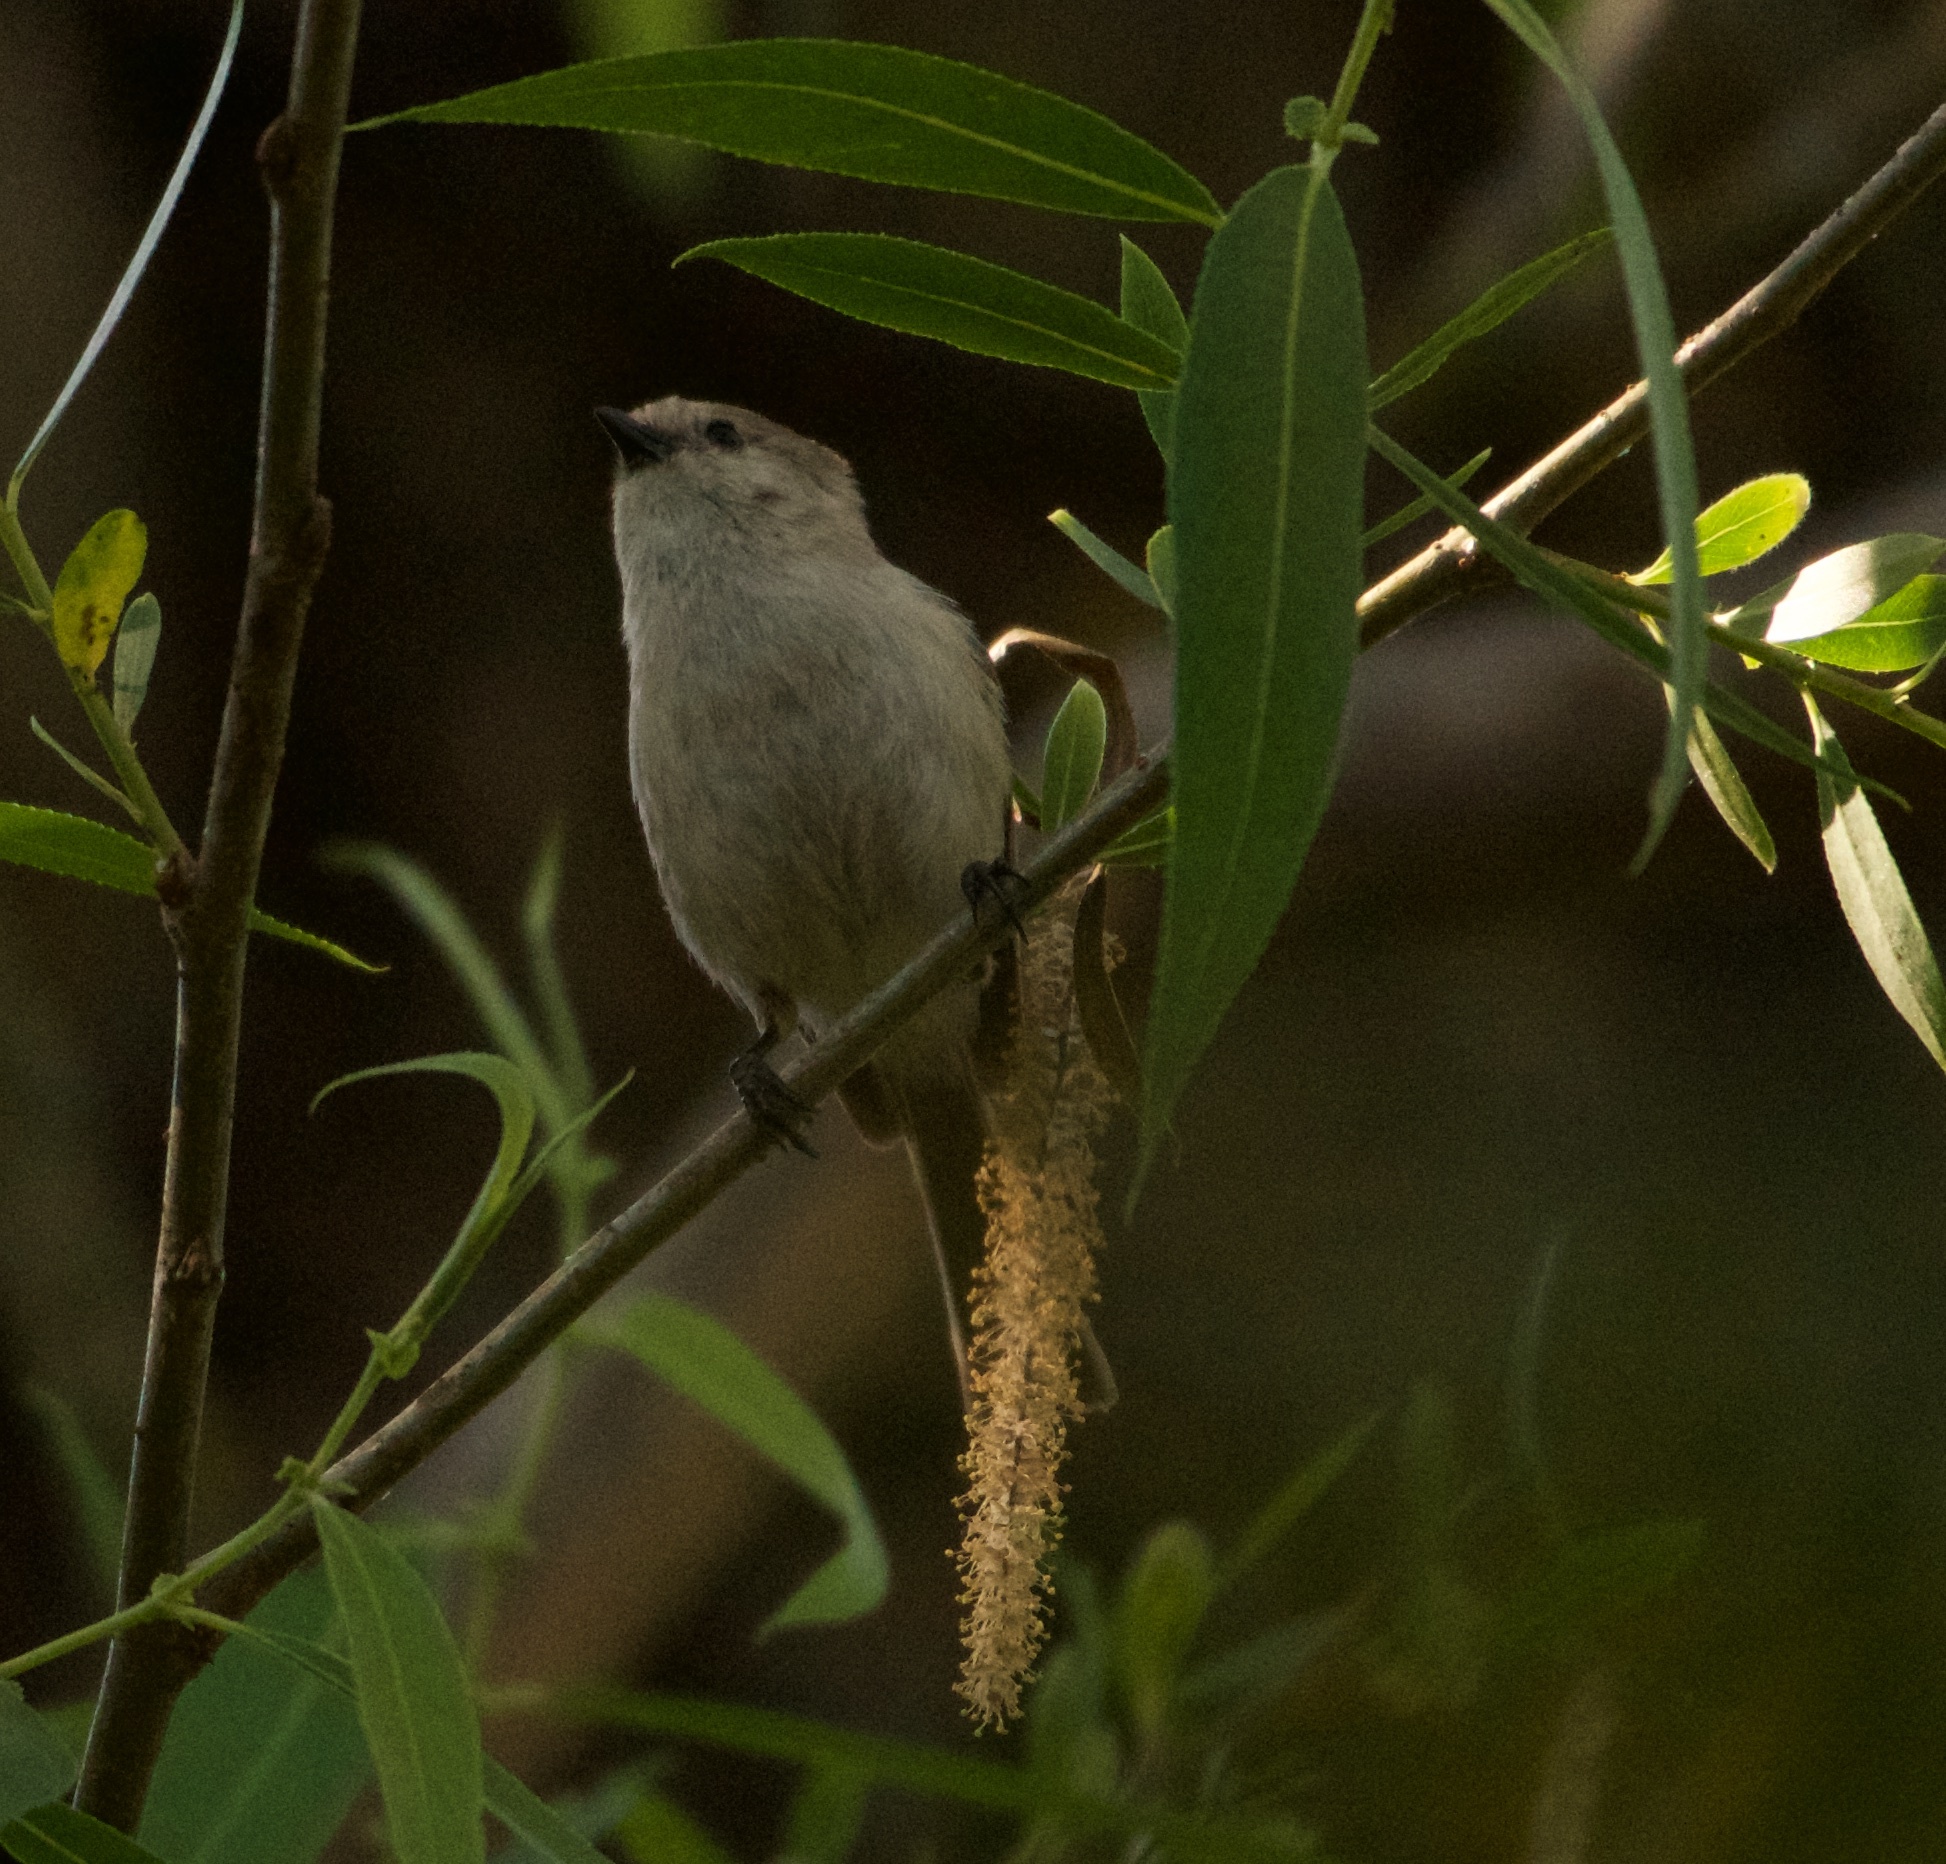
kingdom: Animalia
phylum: Chordata
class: Aves
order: Passeriformes
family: Aegithalidae
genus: Psaltriparus
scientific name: Psaltriparus minimus
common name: American bushtit
